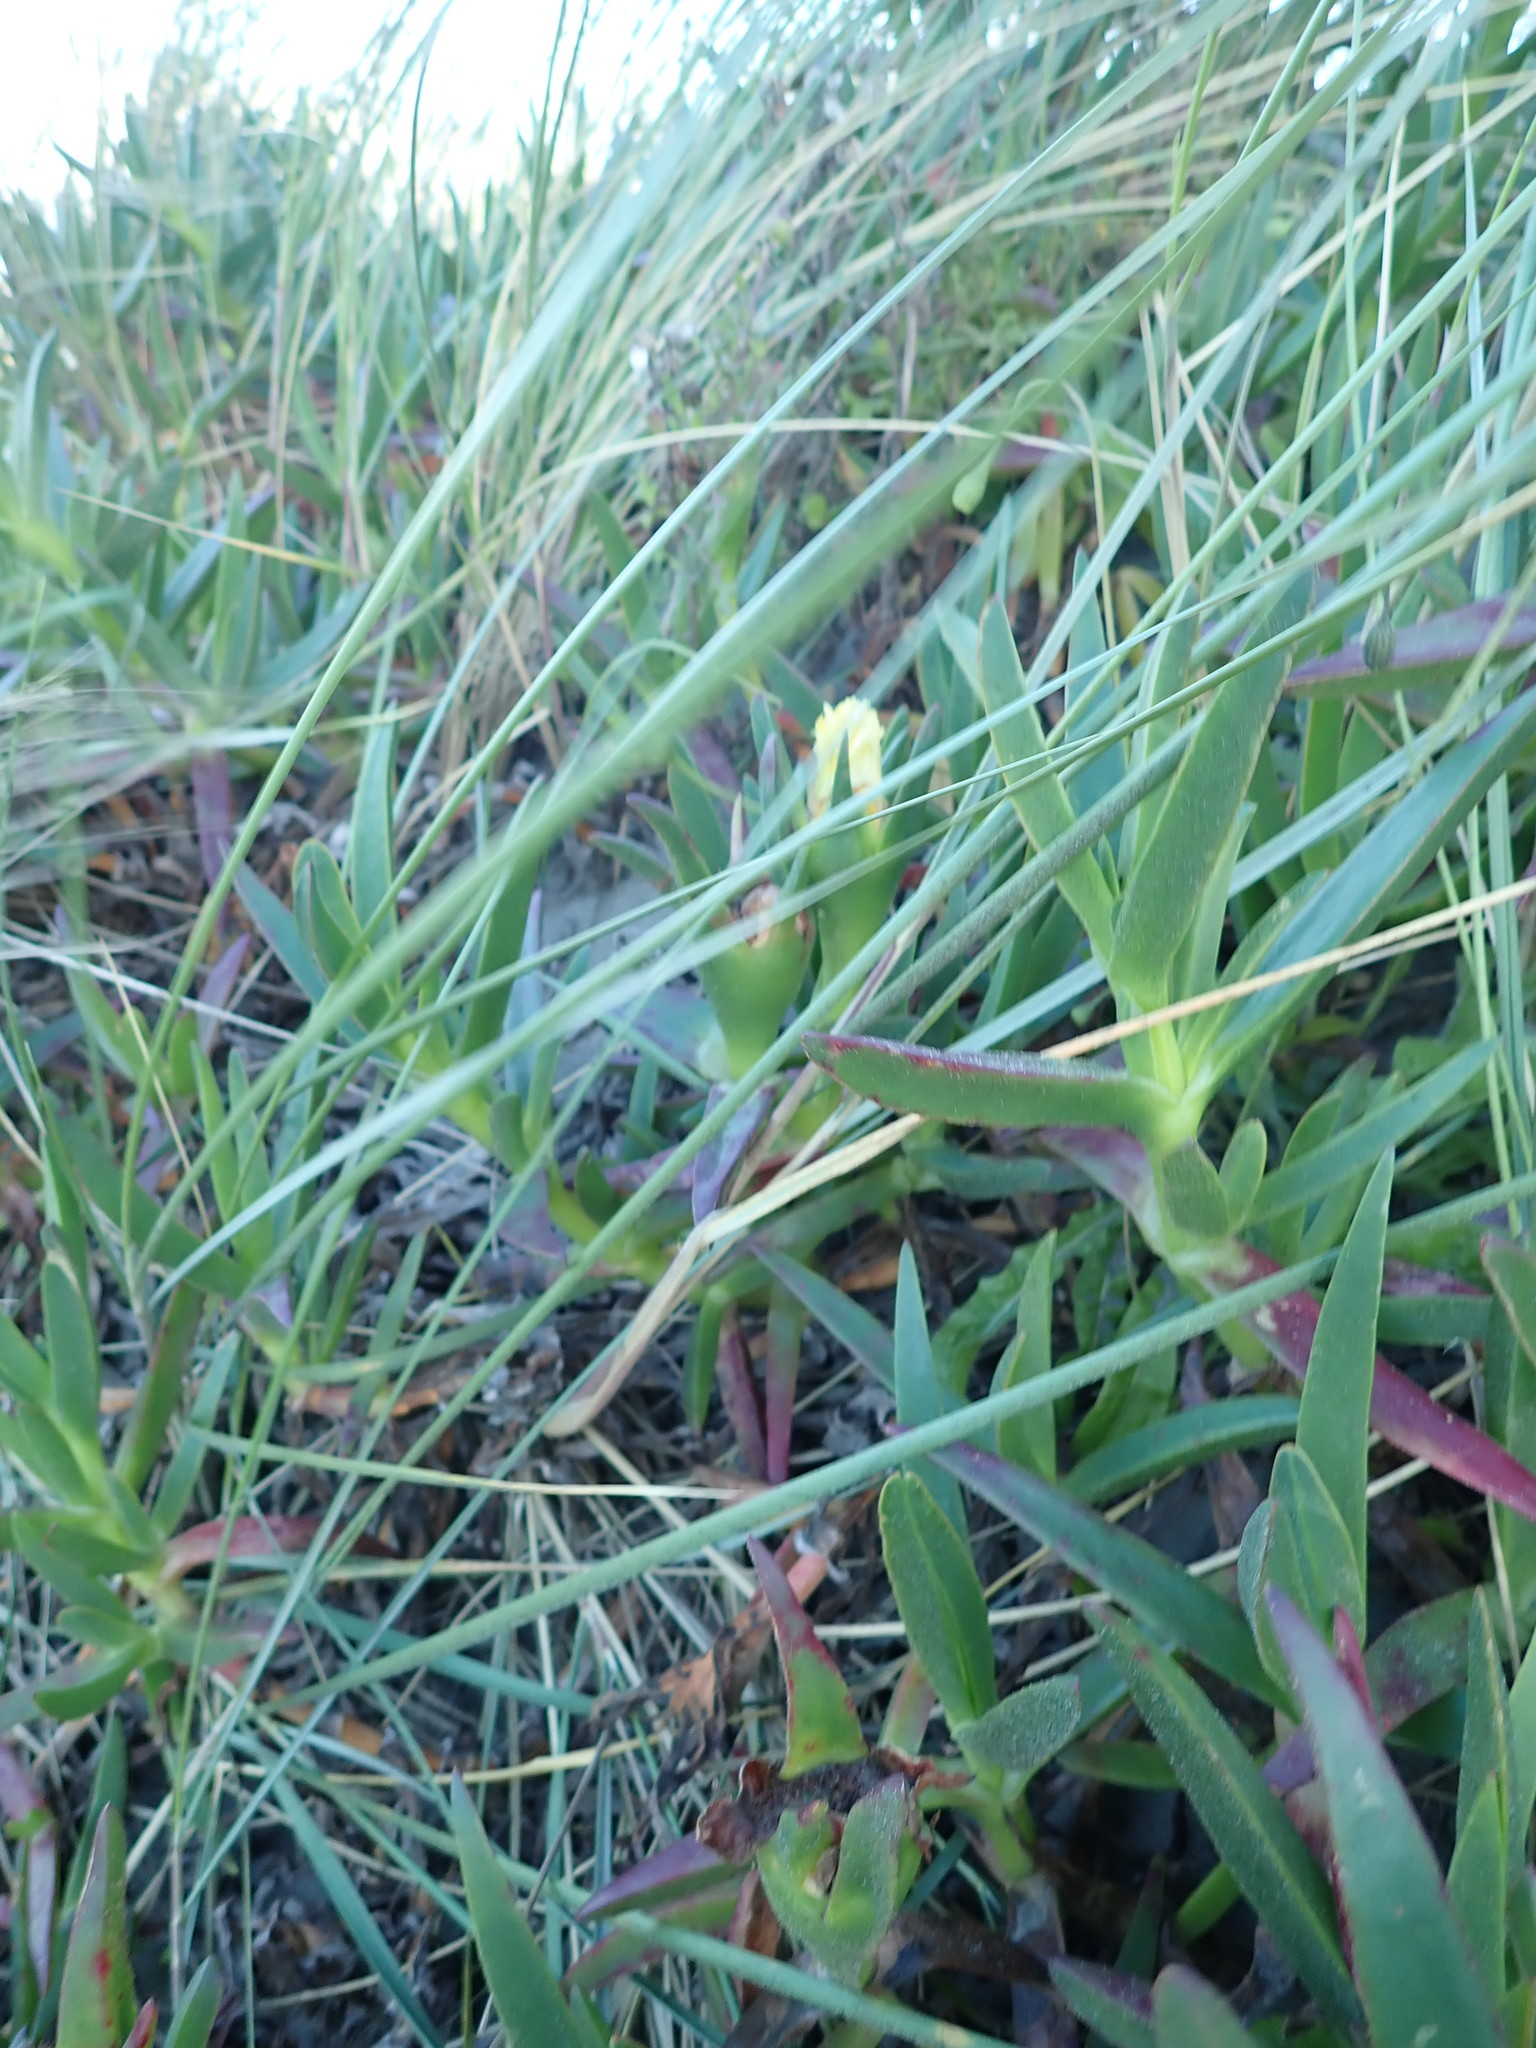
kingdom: Plantae
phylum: Tracheophyta
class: Magnoliopsida
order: Caryophyllales
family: Aizoaceae
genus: Carpobrotus
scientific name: Carpobrotus edulis
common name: Hottentot-fig
